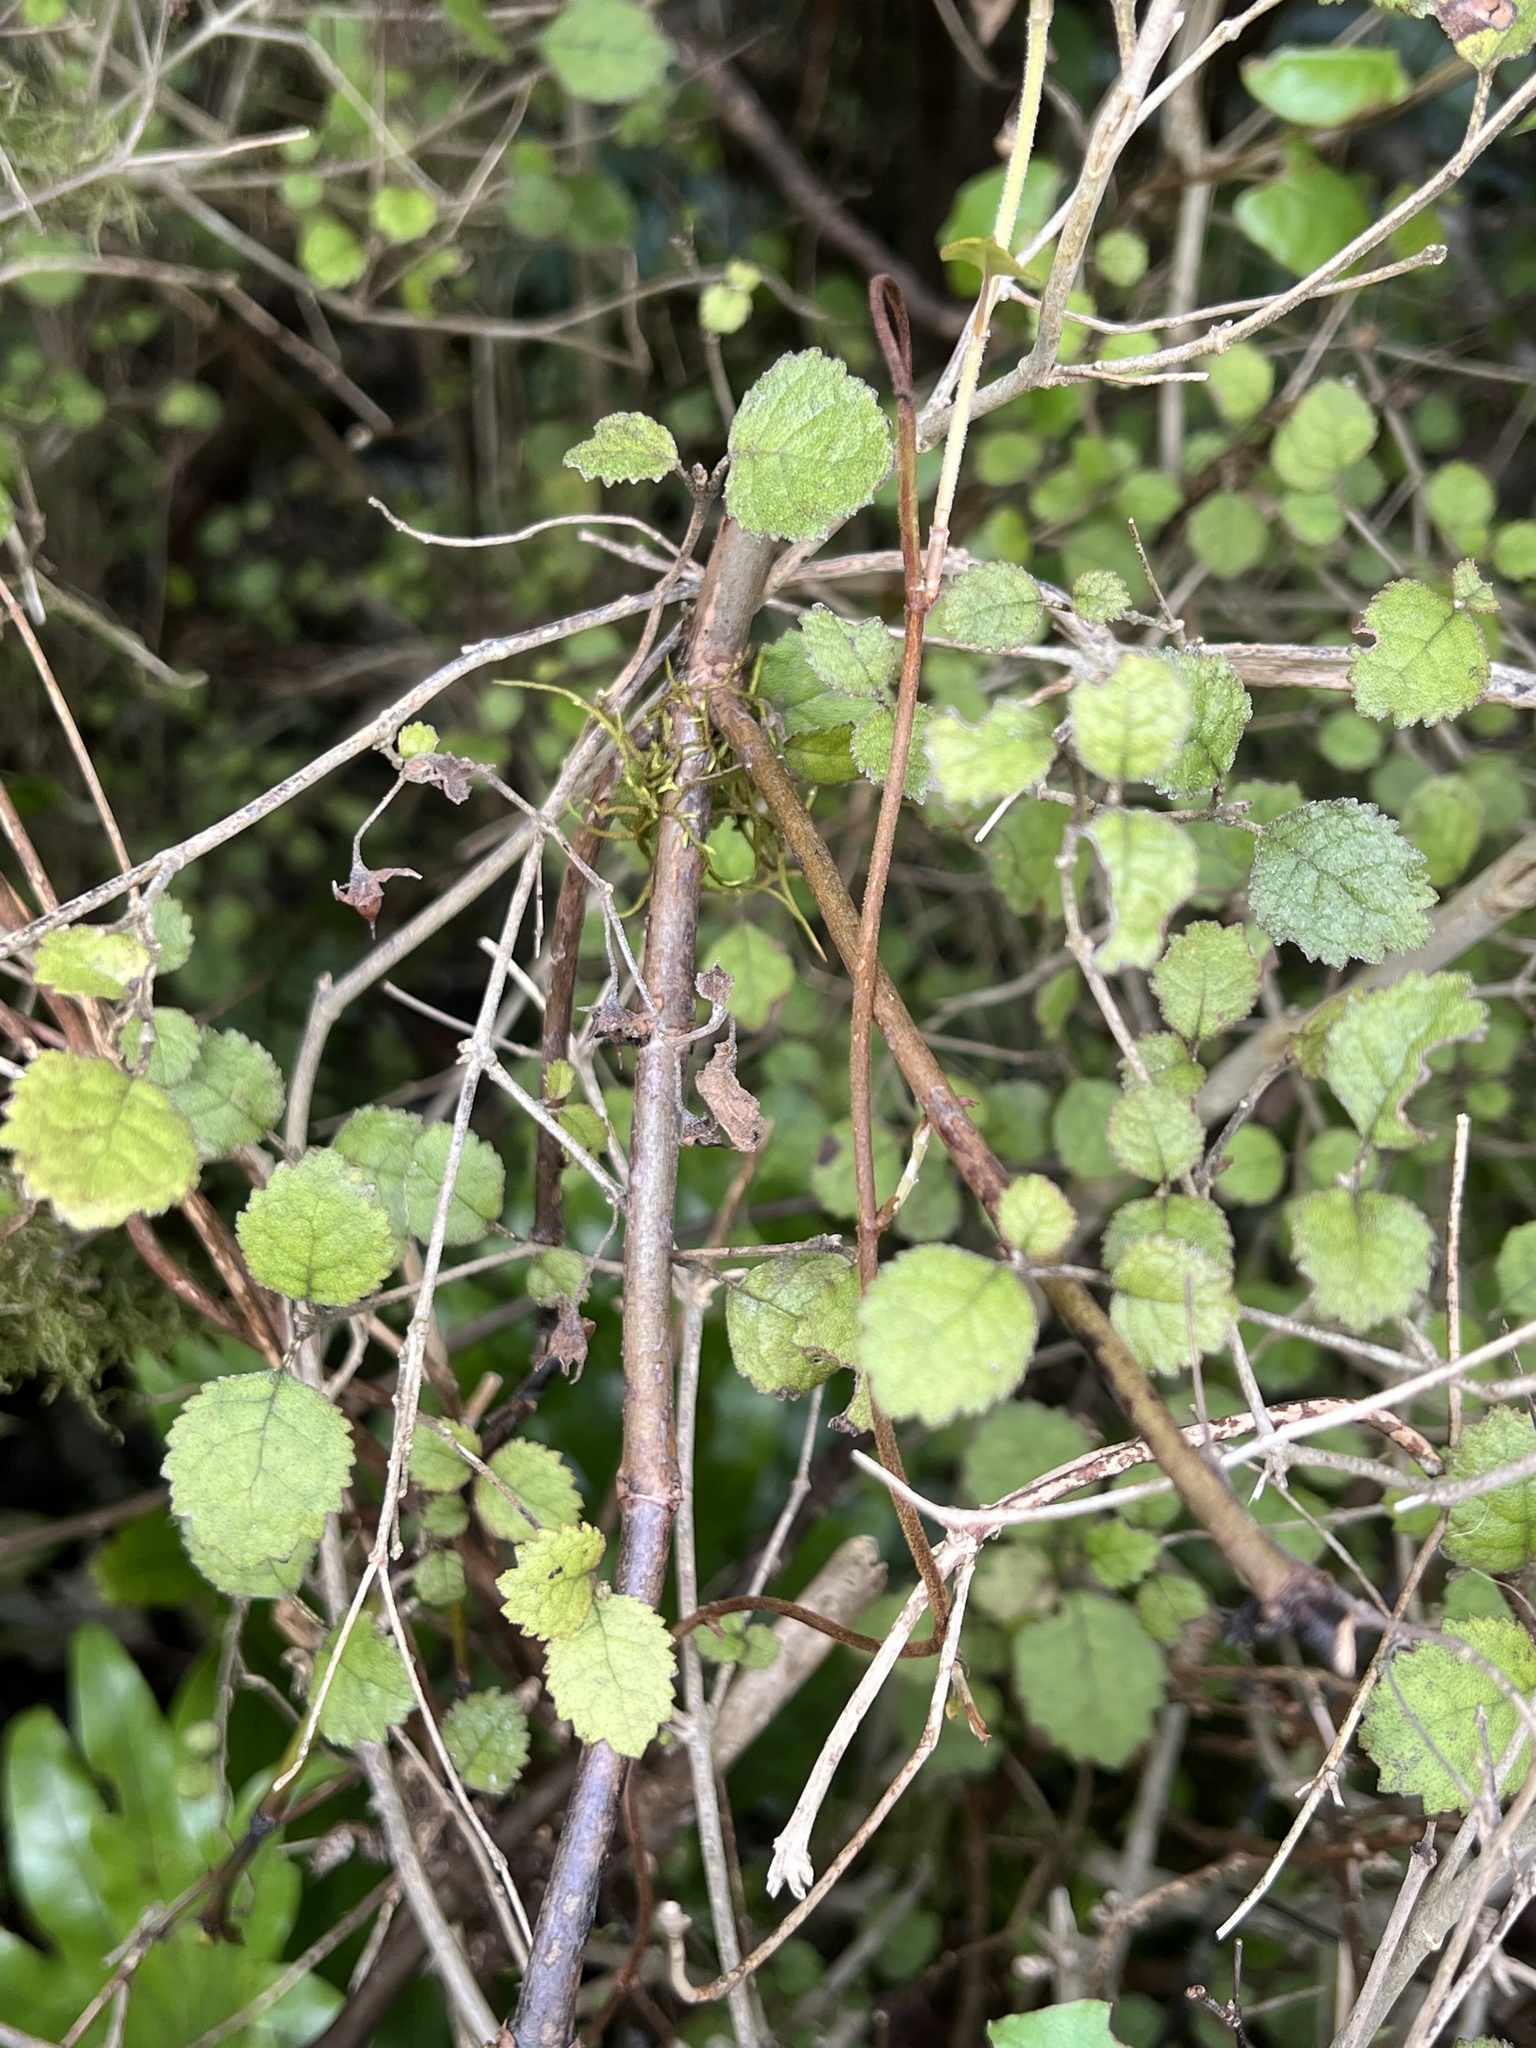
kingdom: Plantae
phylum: Tracheophyta
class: Magnoliopsida
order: Lamiales
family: Gesneriaceae
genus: Rhabdothamnus
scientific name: Rhabdothamnus solandri
